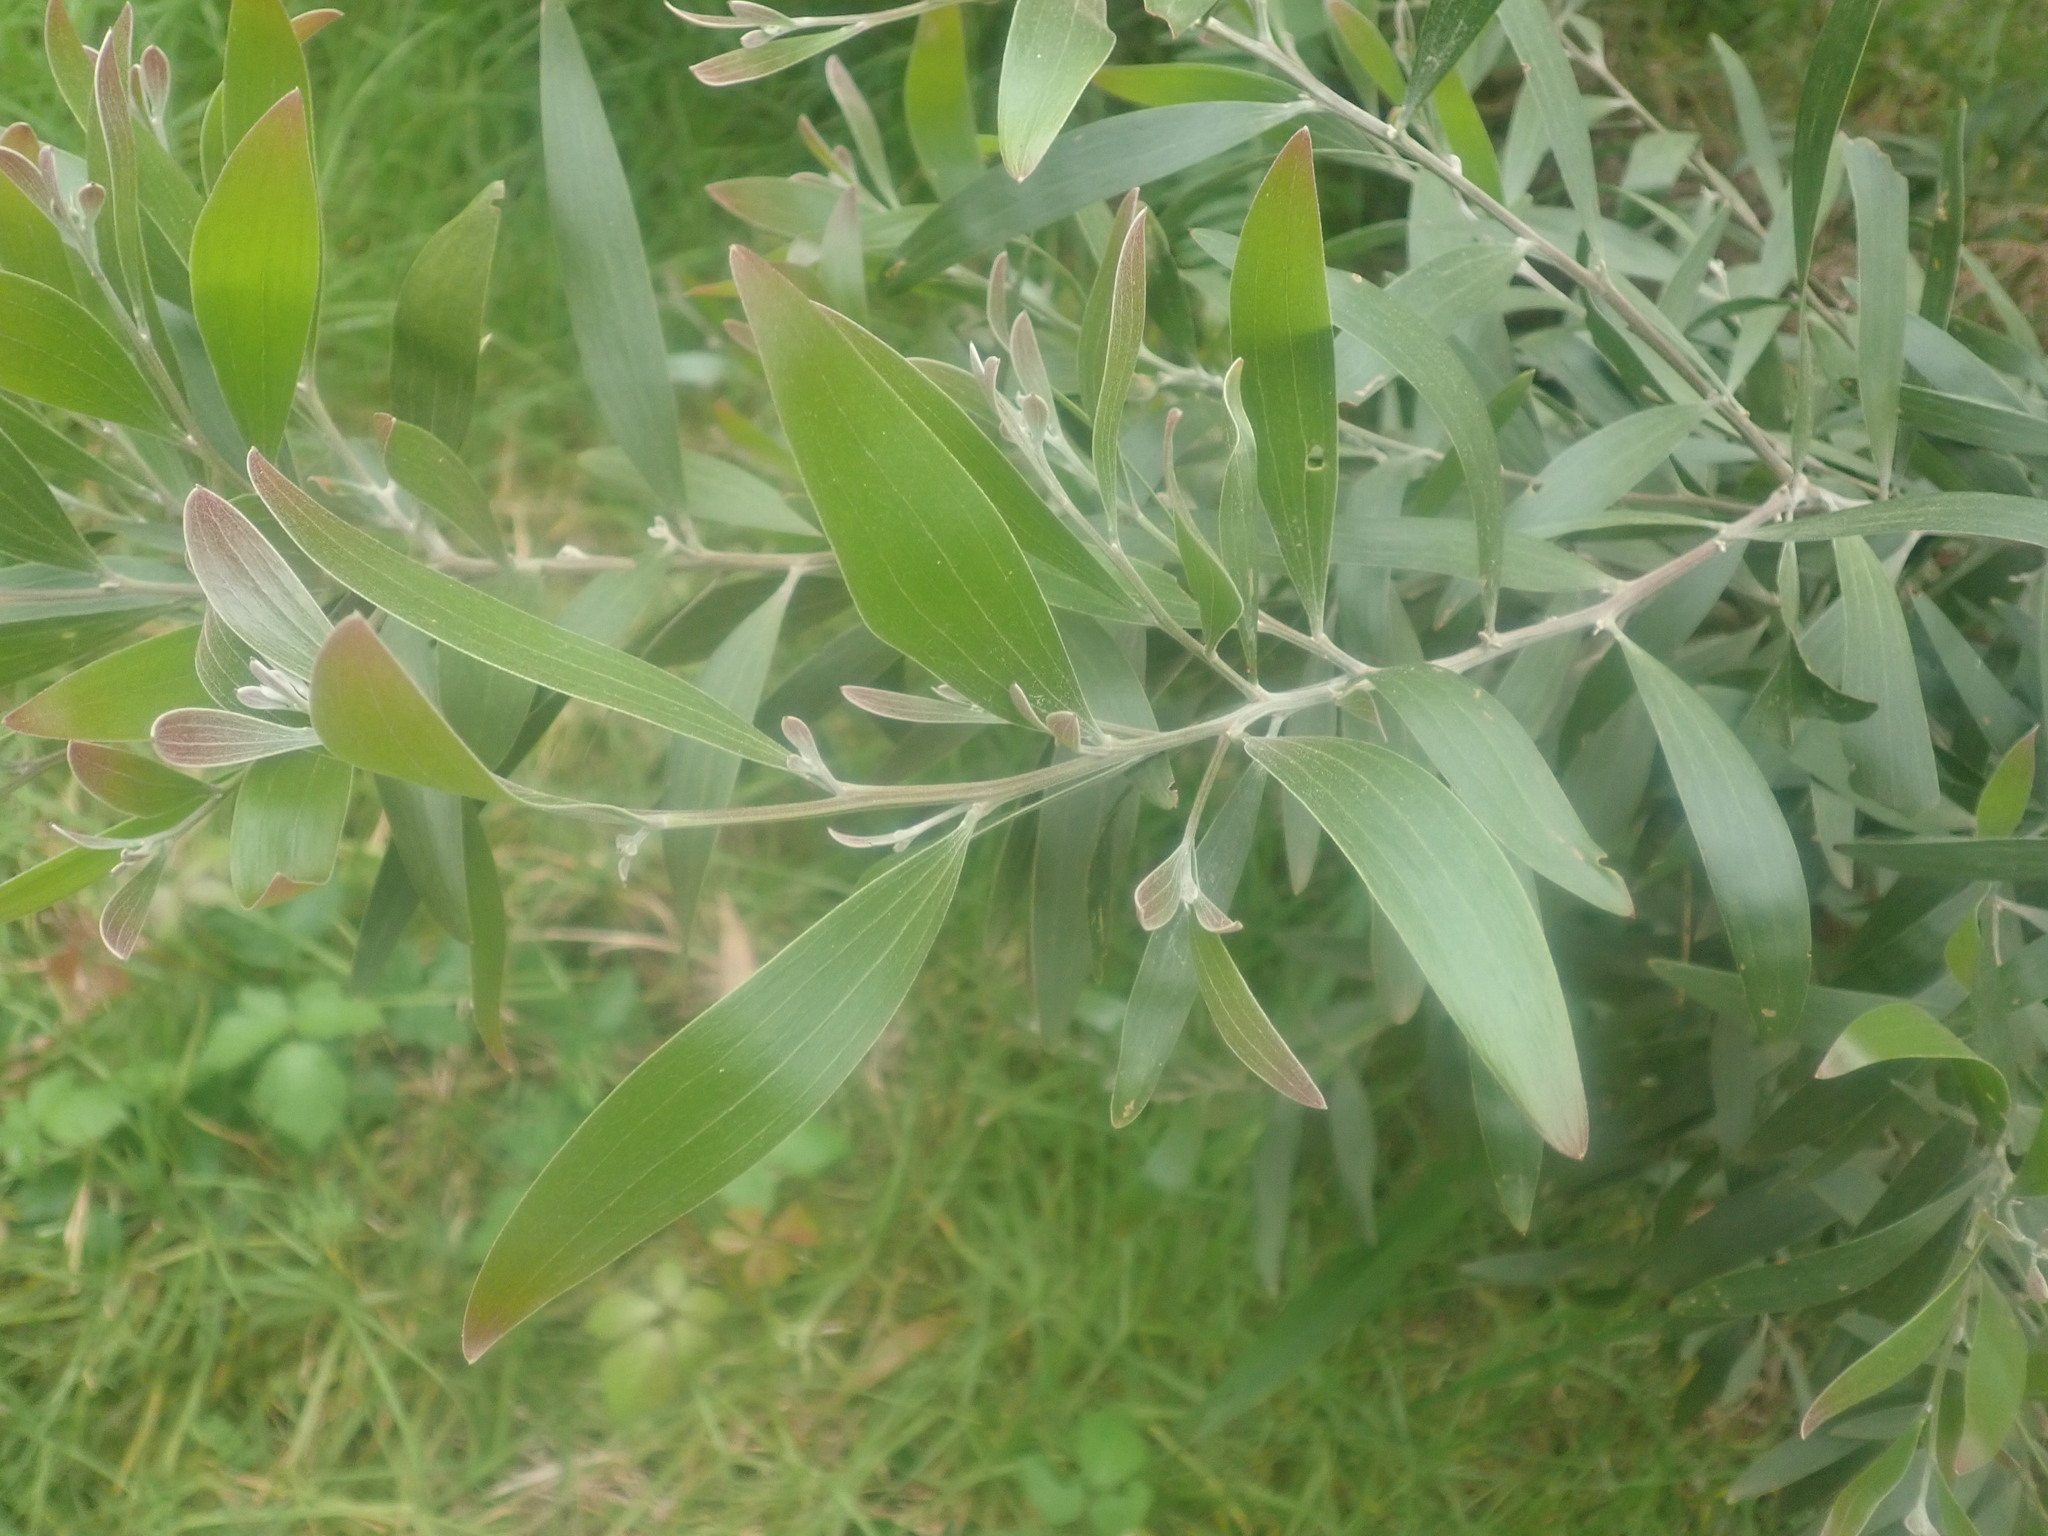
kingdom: Plantae
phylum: Tracheophyta
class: Magnoliopsida
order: Fabales
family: Fabaceae
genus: Acacia
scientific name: Acacia melanoxylon
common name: Blackwood
